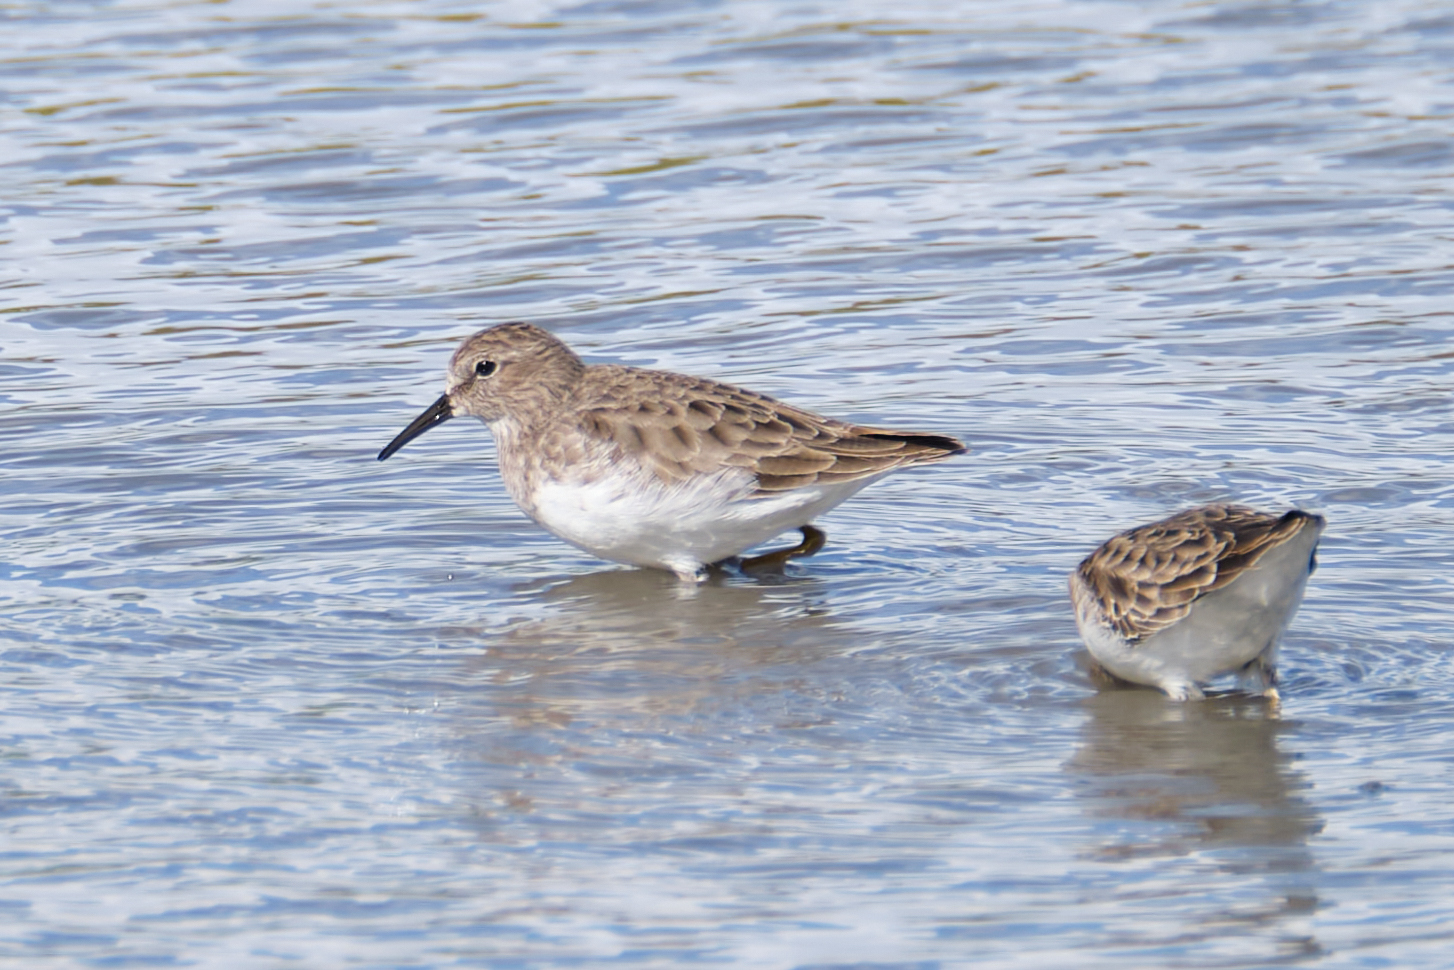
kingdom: Animalia
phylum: Chordata
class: Aves
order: Charadriiformes
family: Scolopacidae
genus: Calidris
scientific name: Calidris minutilla
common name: Least sandpiper
